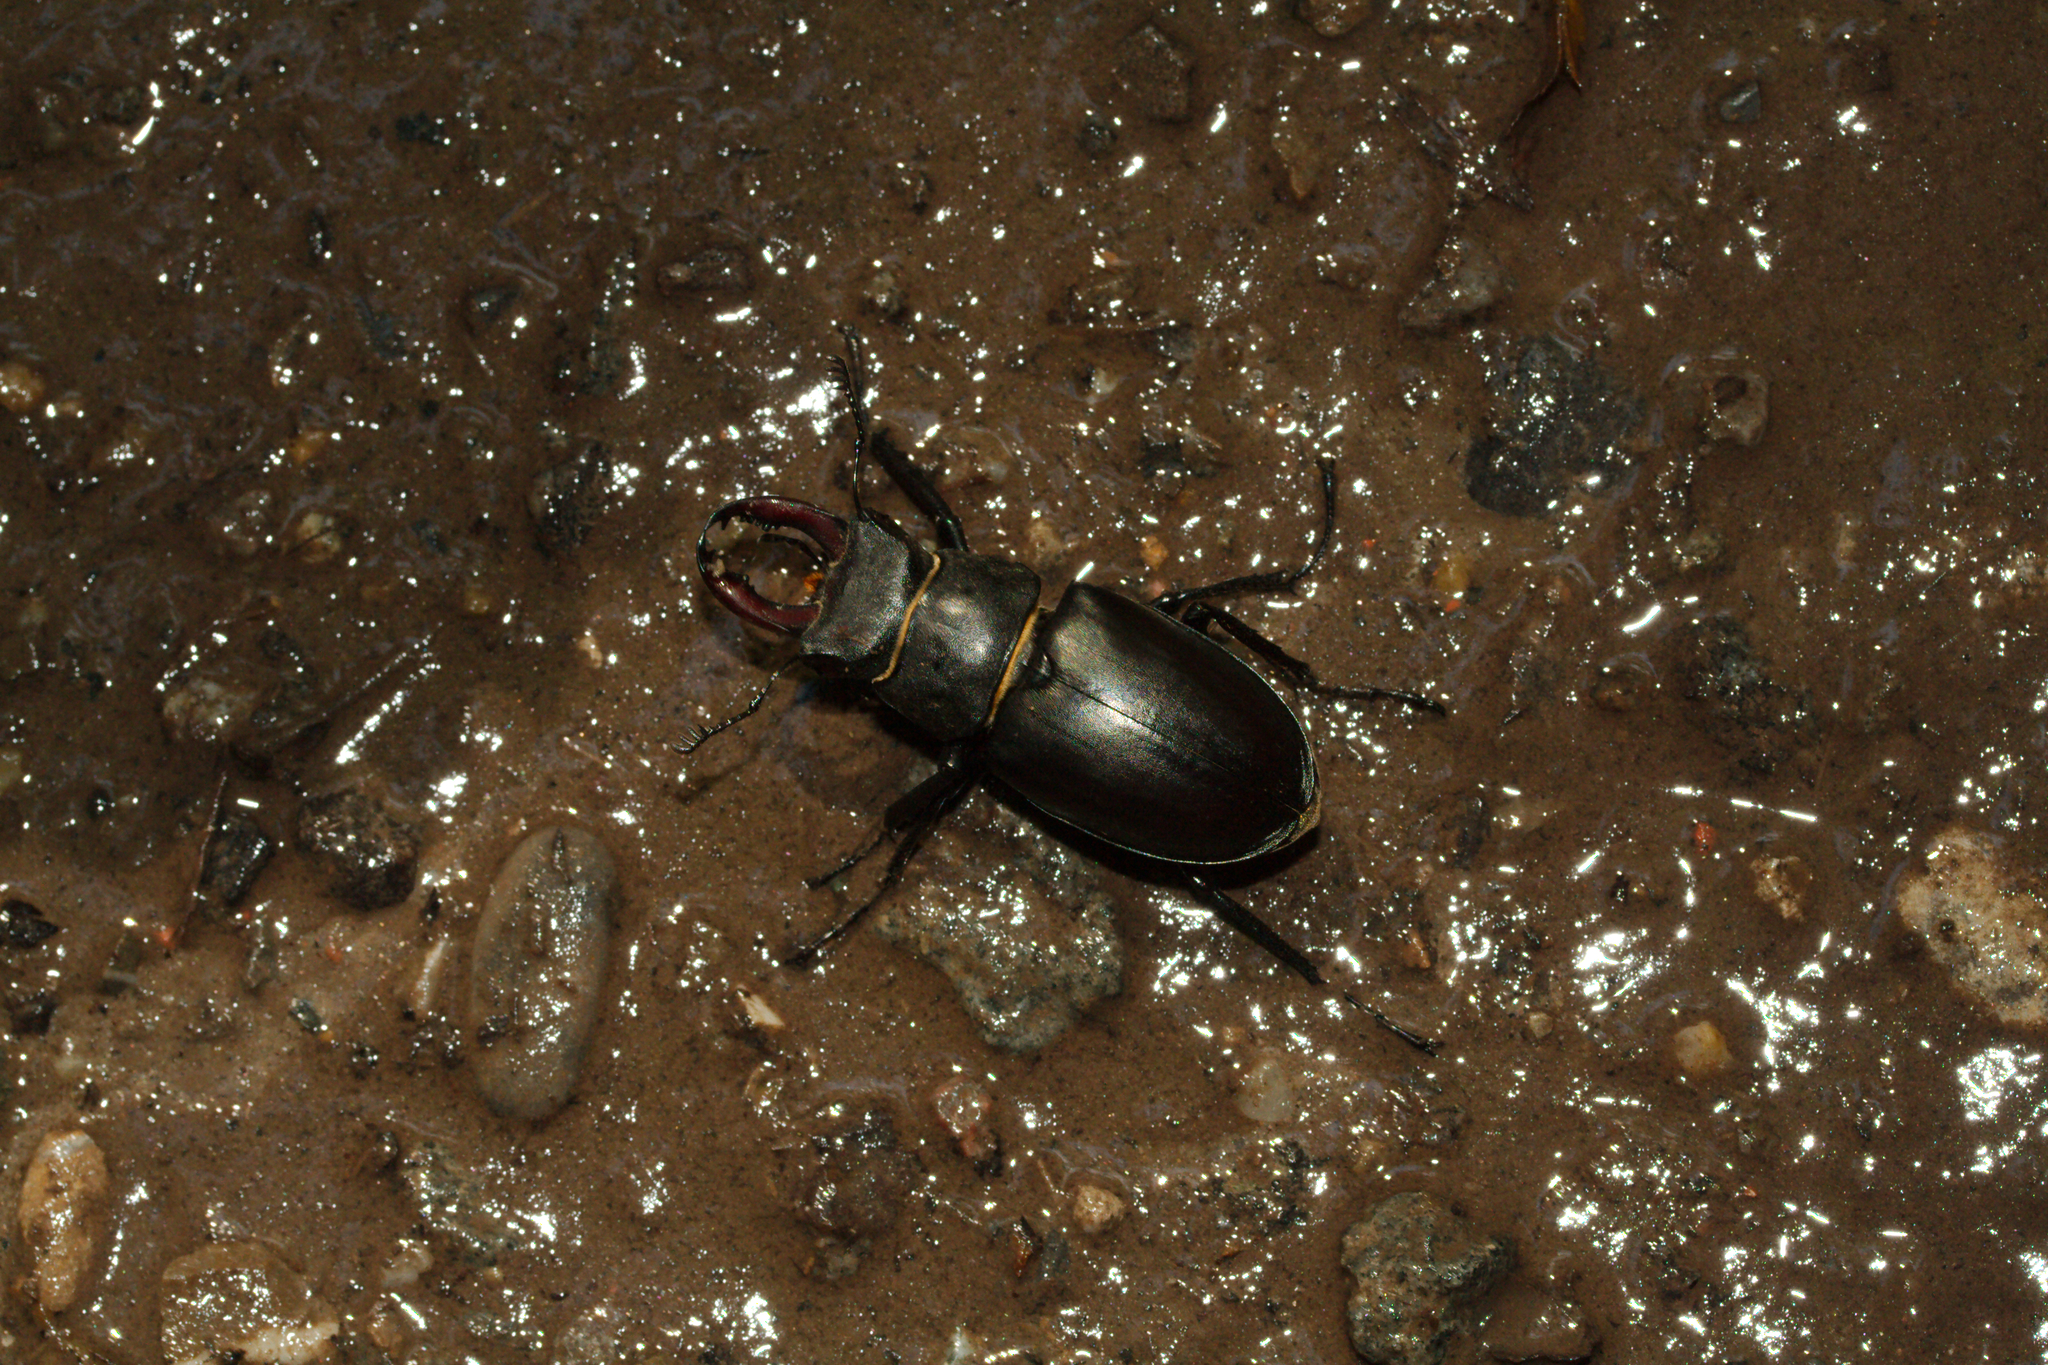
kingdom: Animalia
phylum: Arthropoda
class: Insecta
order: Coleoptera
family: Lucanidae
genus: Lucanus
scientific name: Lucanus cervus
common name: Stag beetle
